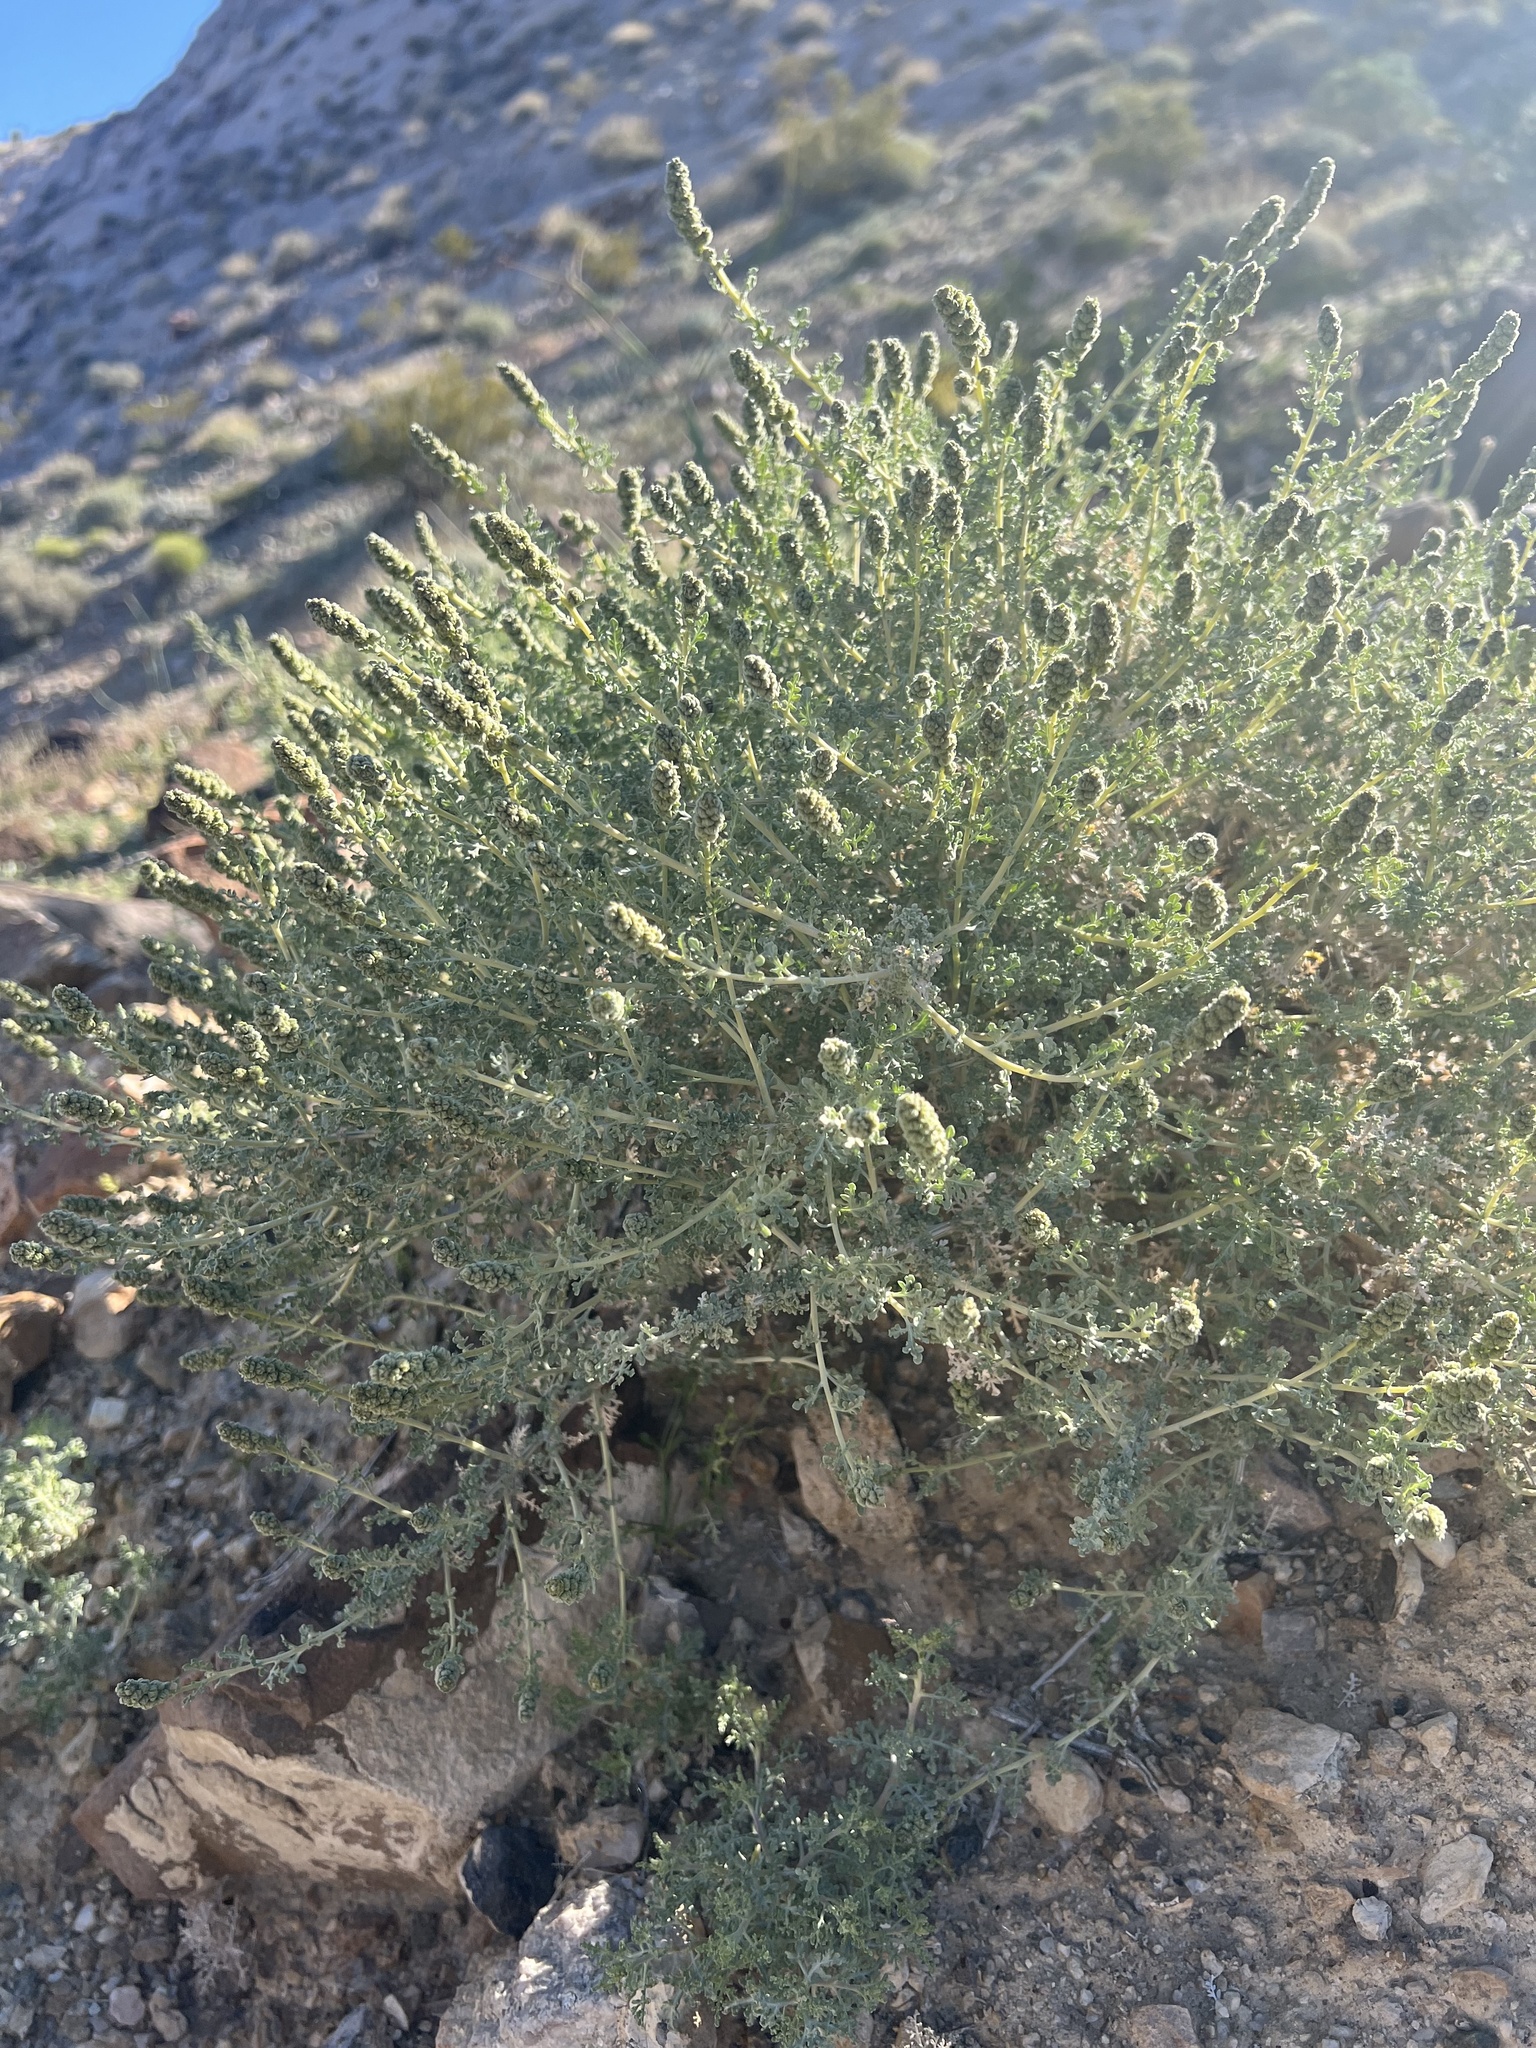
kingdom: Plantae
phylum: Tracheophyta
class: Magnoliopsida
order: Asterales
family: Asteraceae
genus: Ambrosia
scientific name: Ambrosia dumosa
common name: Bur-sage
